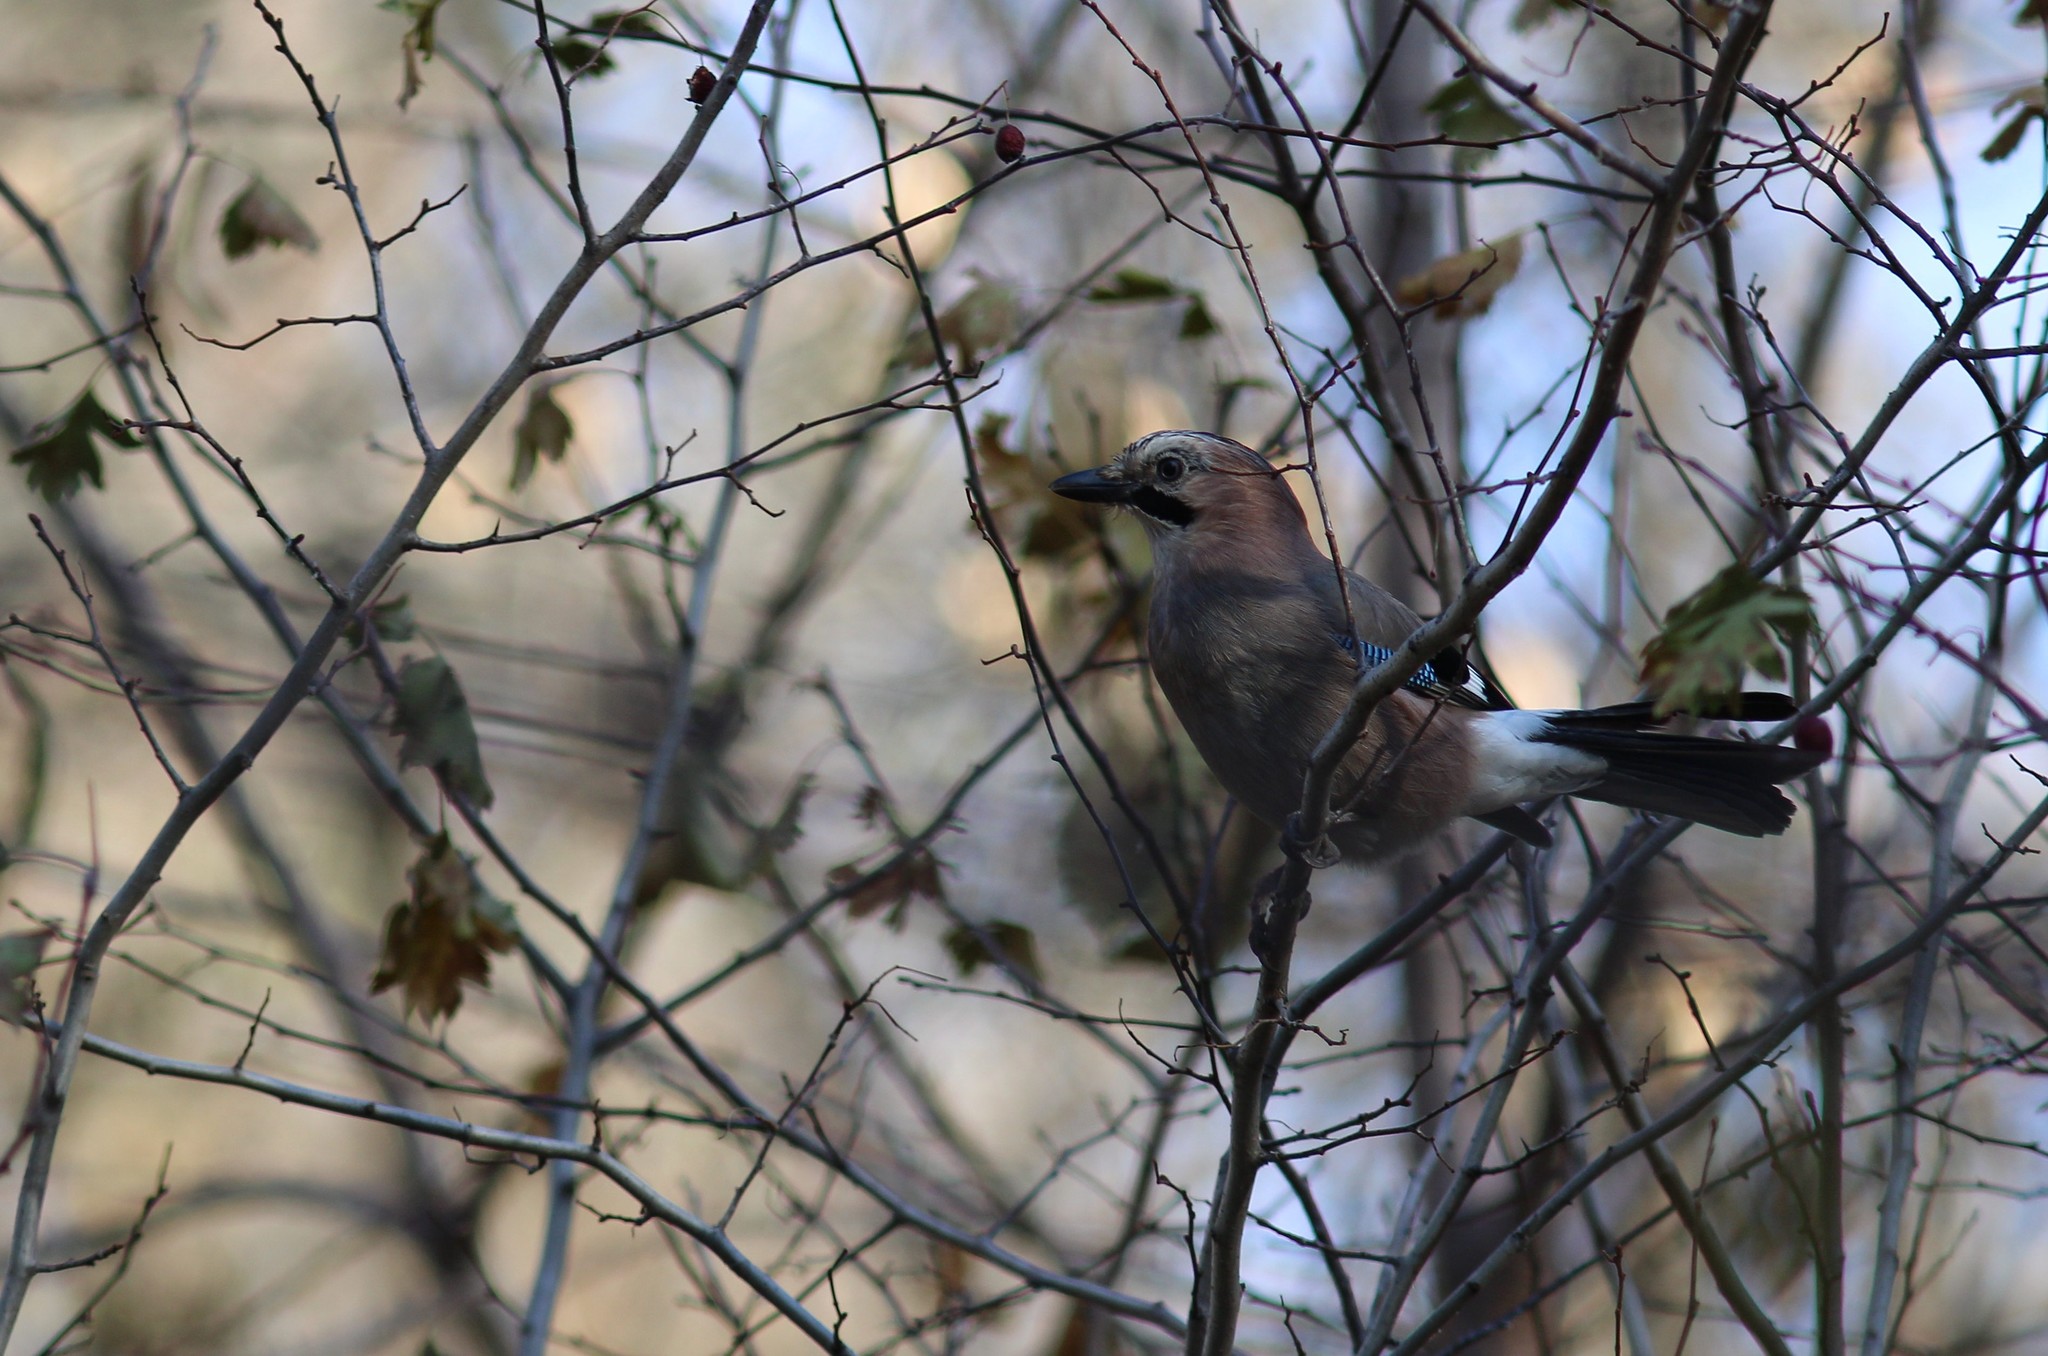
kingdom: Animalia
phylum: Chordata
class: Aves
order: Passeriformes
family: Corvidae
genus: Garrulus
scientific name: Garrulus glandarius
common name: Eurasian jay
